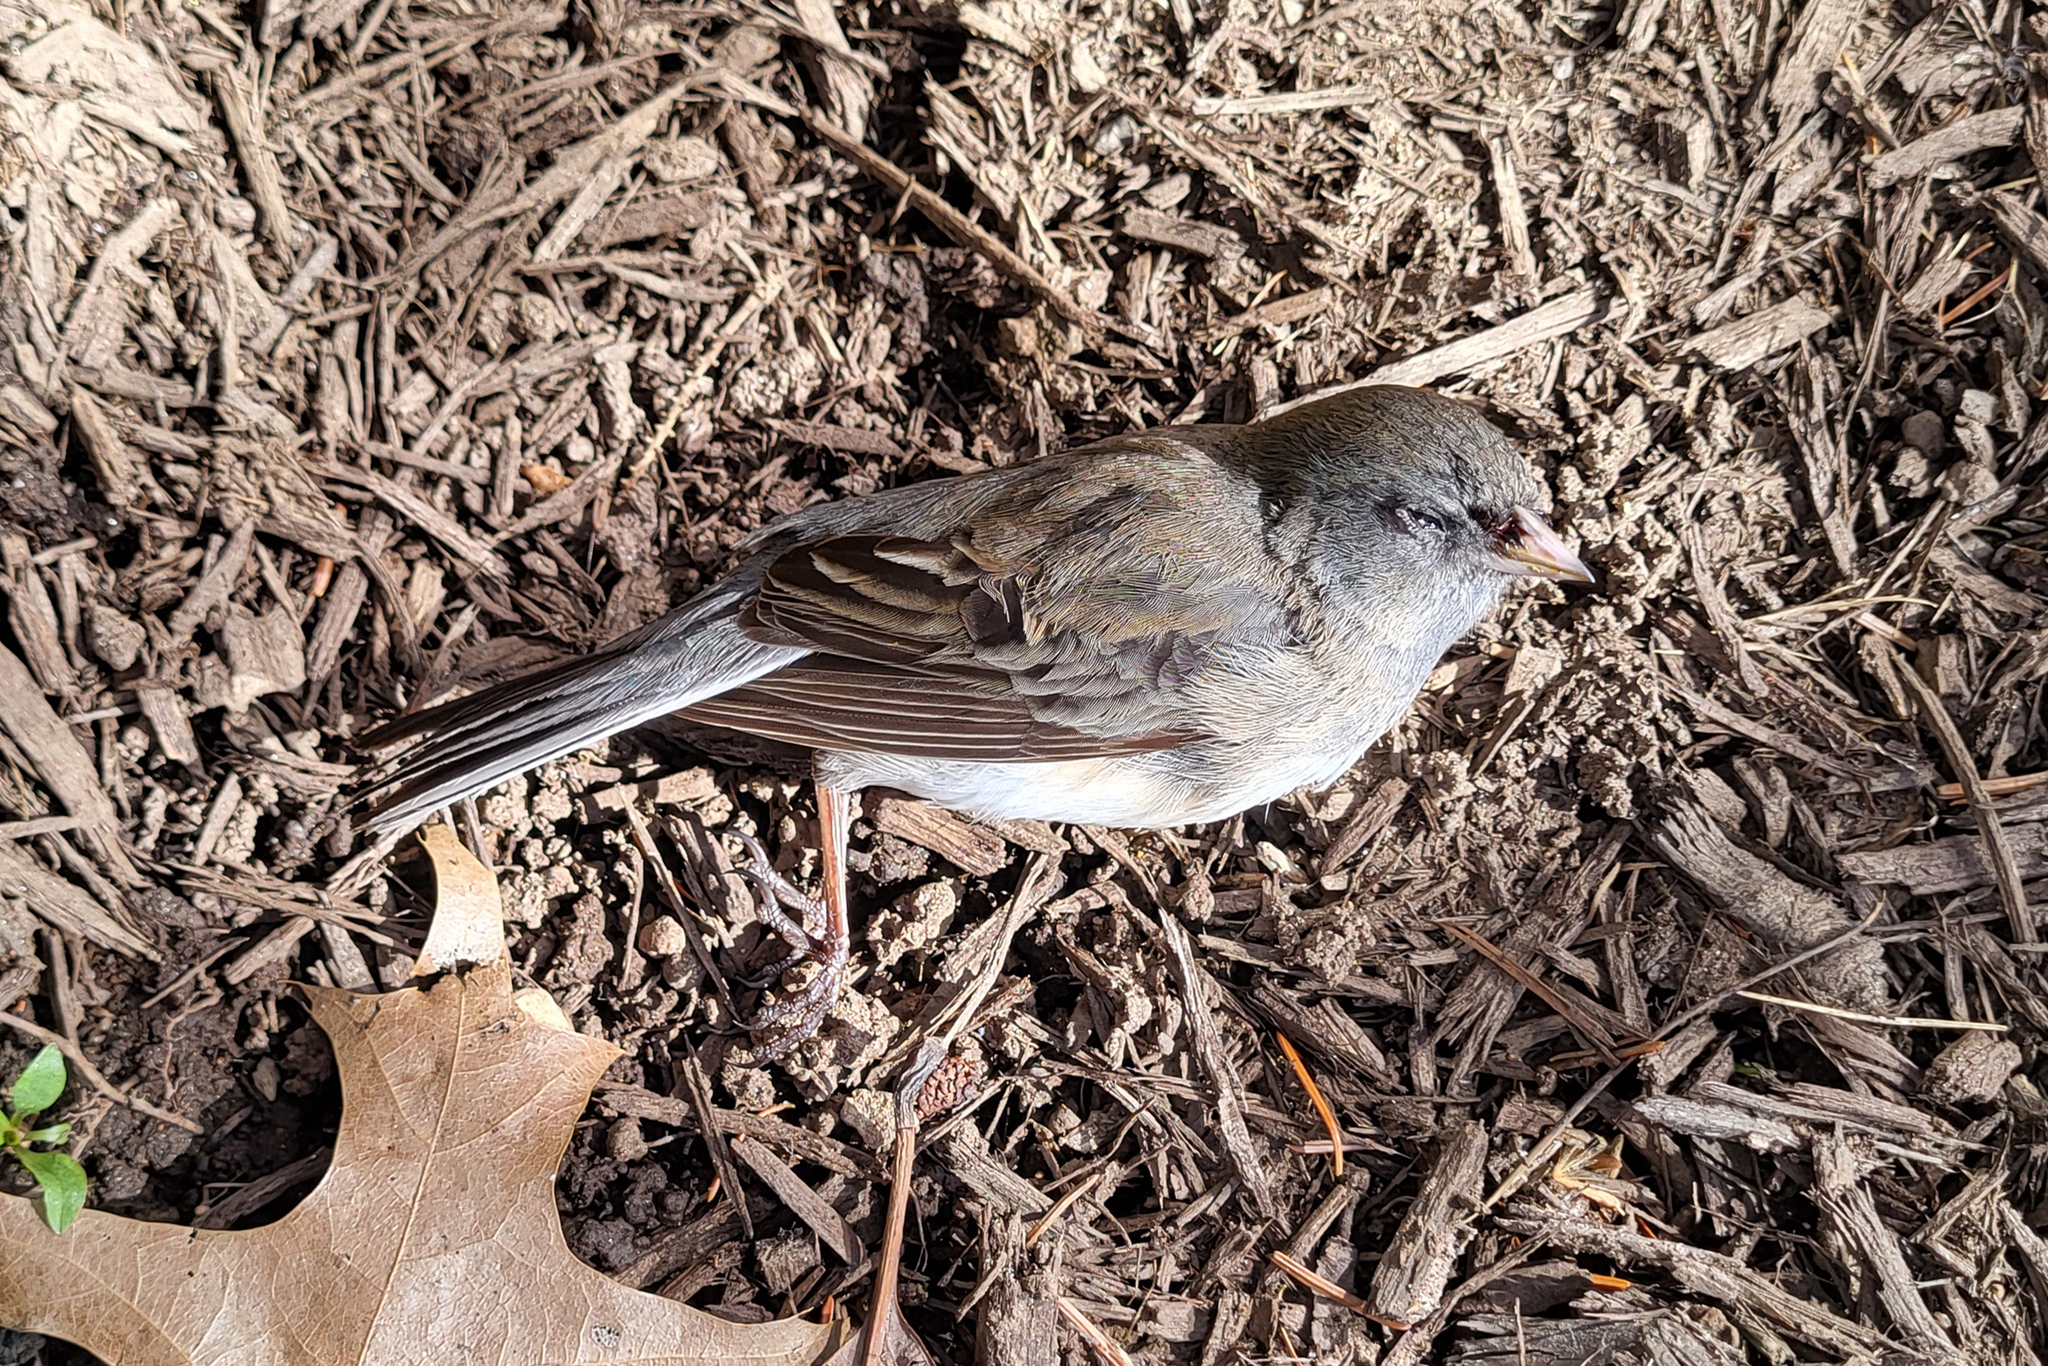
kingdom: Animalia
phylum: Chordata
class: Aves
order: Passeriformes
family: Passerellidae
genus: Junco
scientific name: Junco hyemalis
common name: Dark-eyed junco
